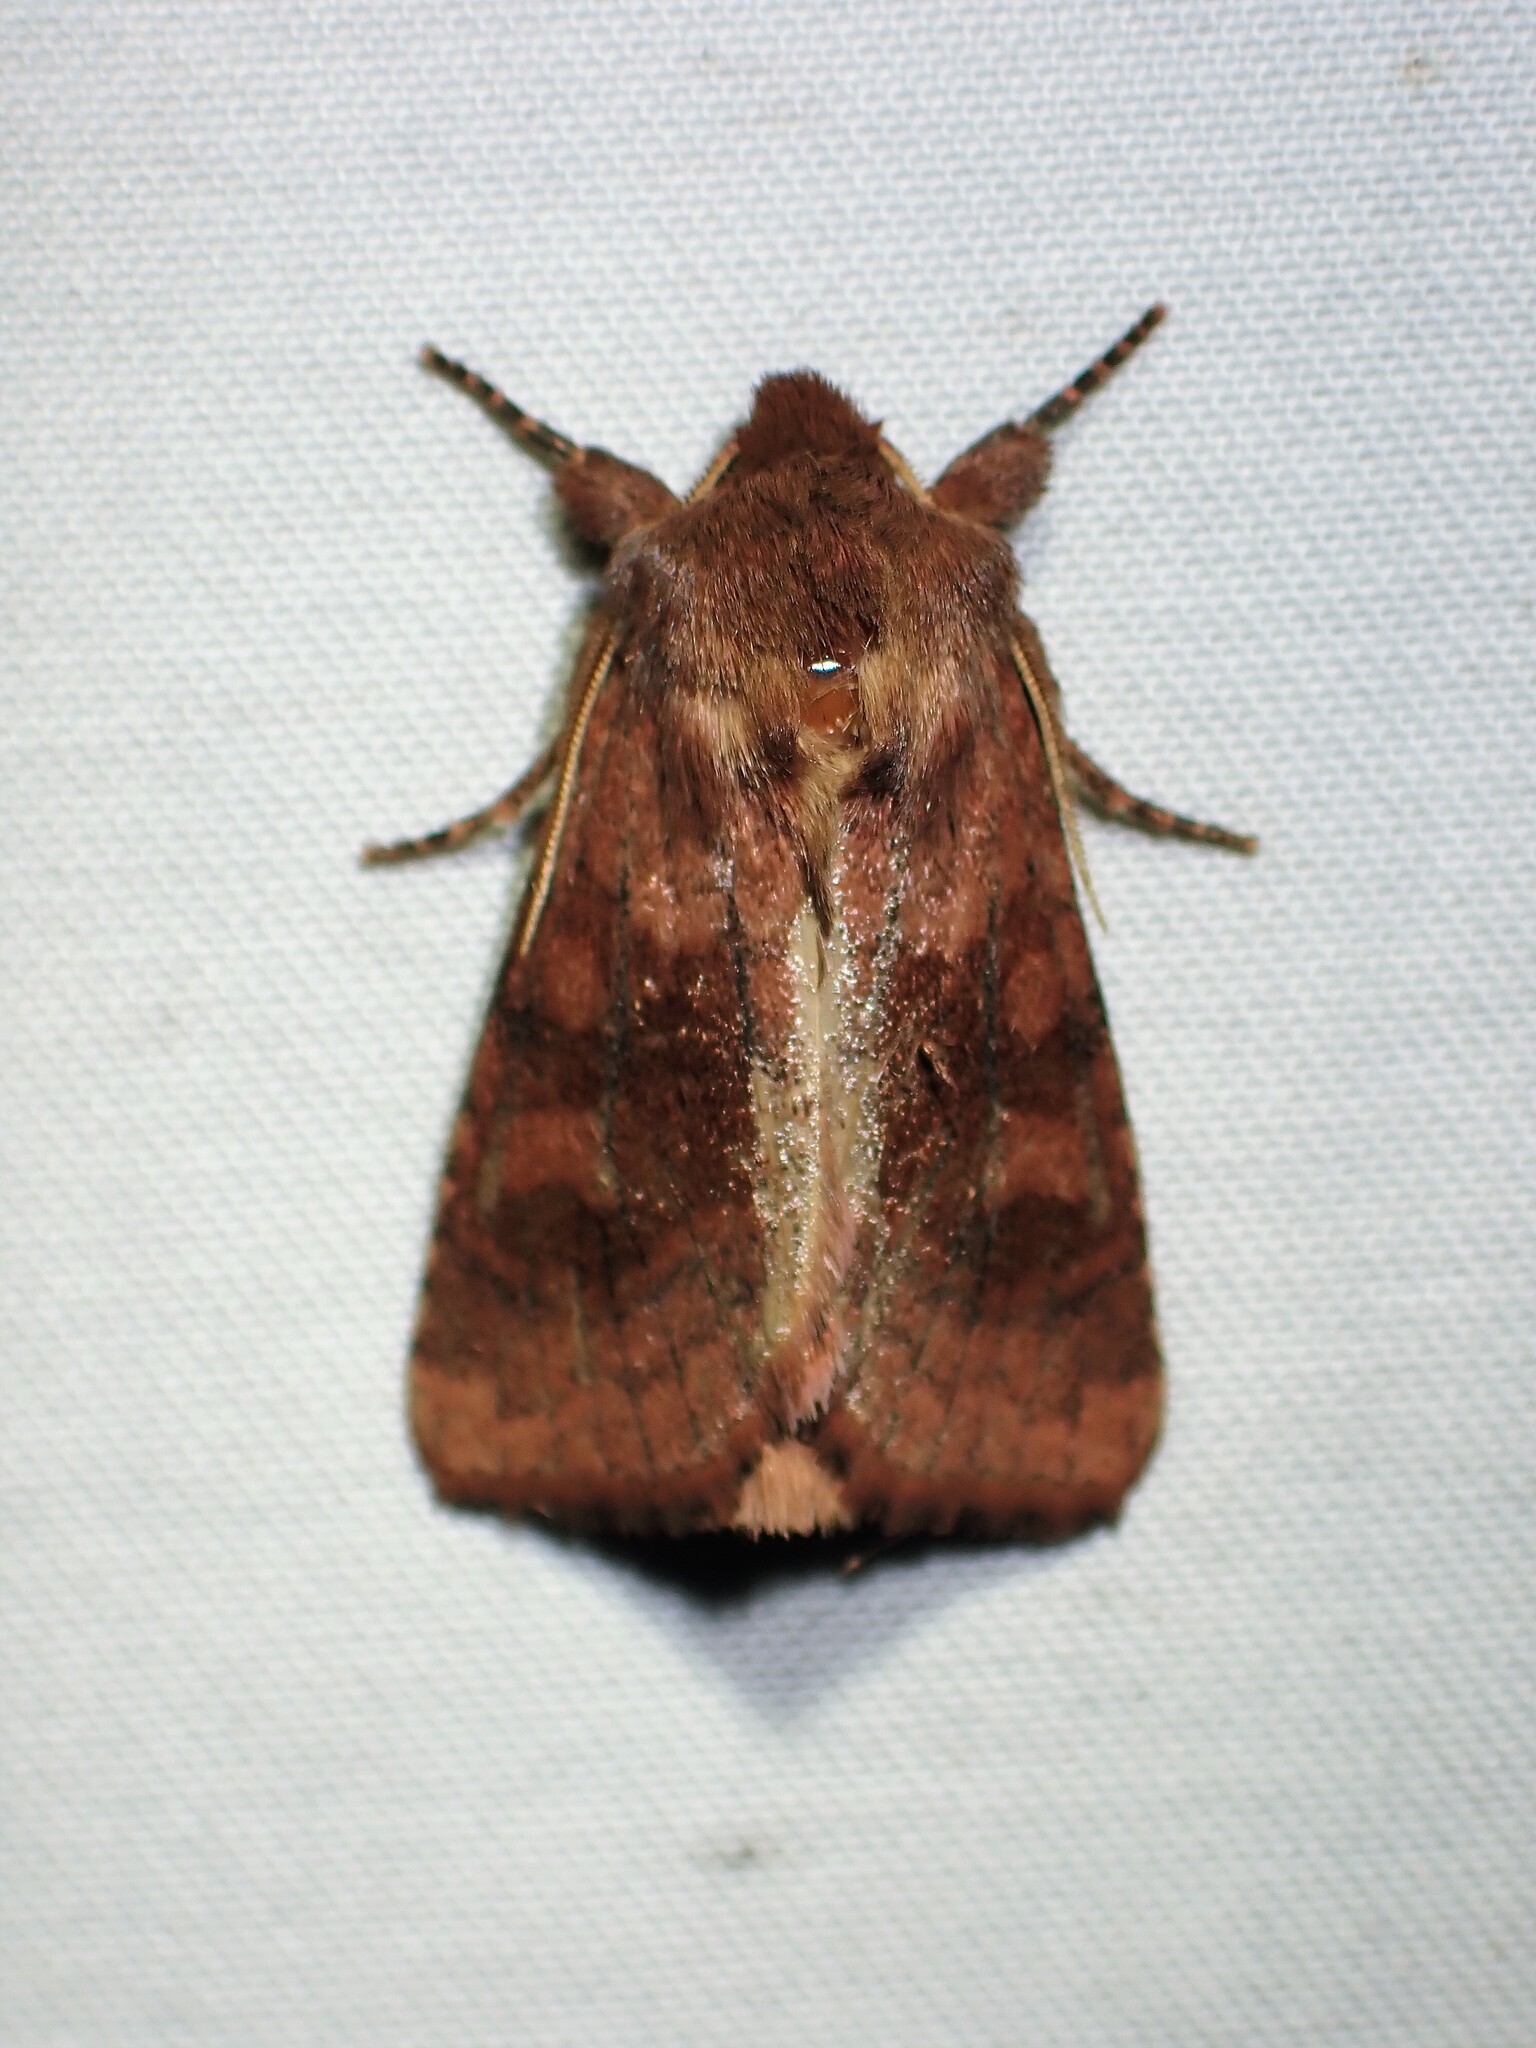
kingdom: Animalia
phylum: Arthropoda
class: Insecta
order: Lepidoptera
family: Noctuidae
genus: Nephelodes
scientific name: Nephelodes minians
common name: Bronzed cutworm
